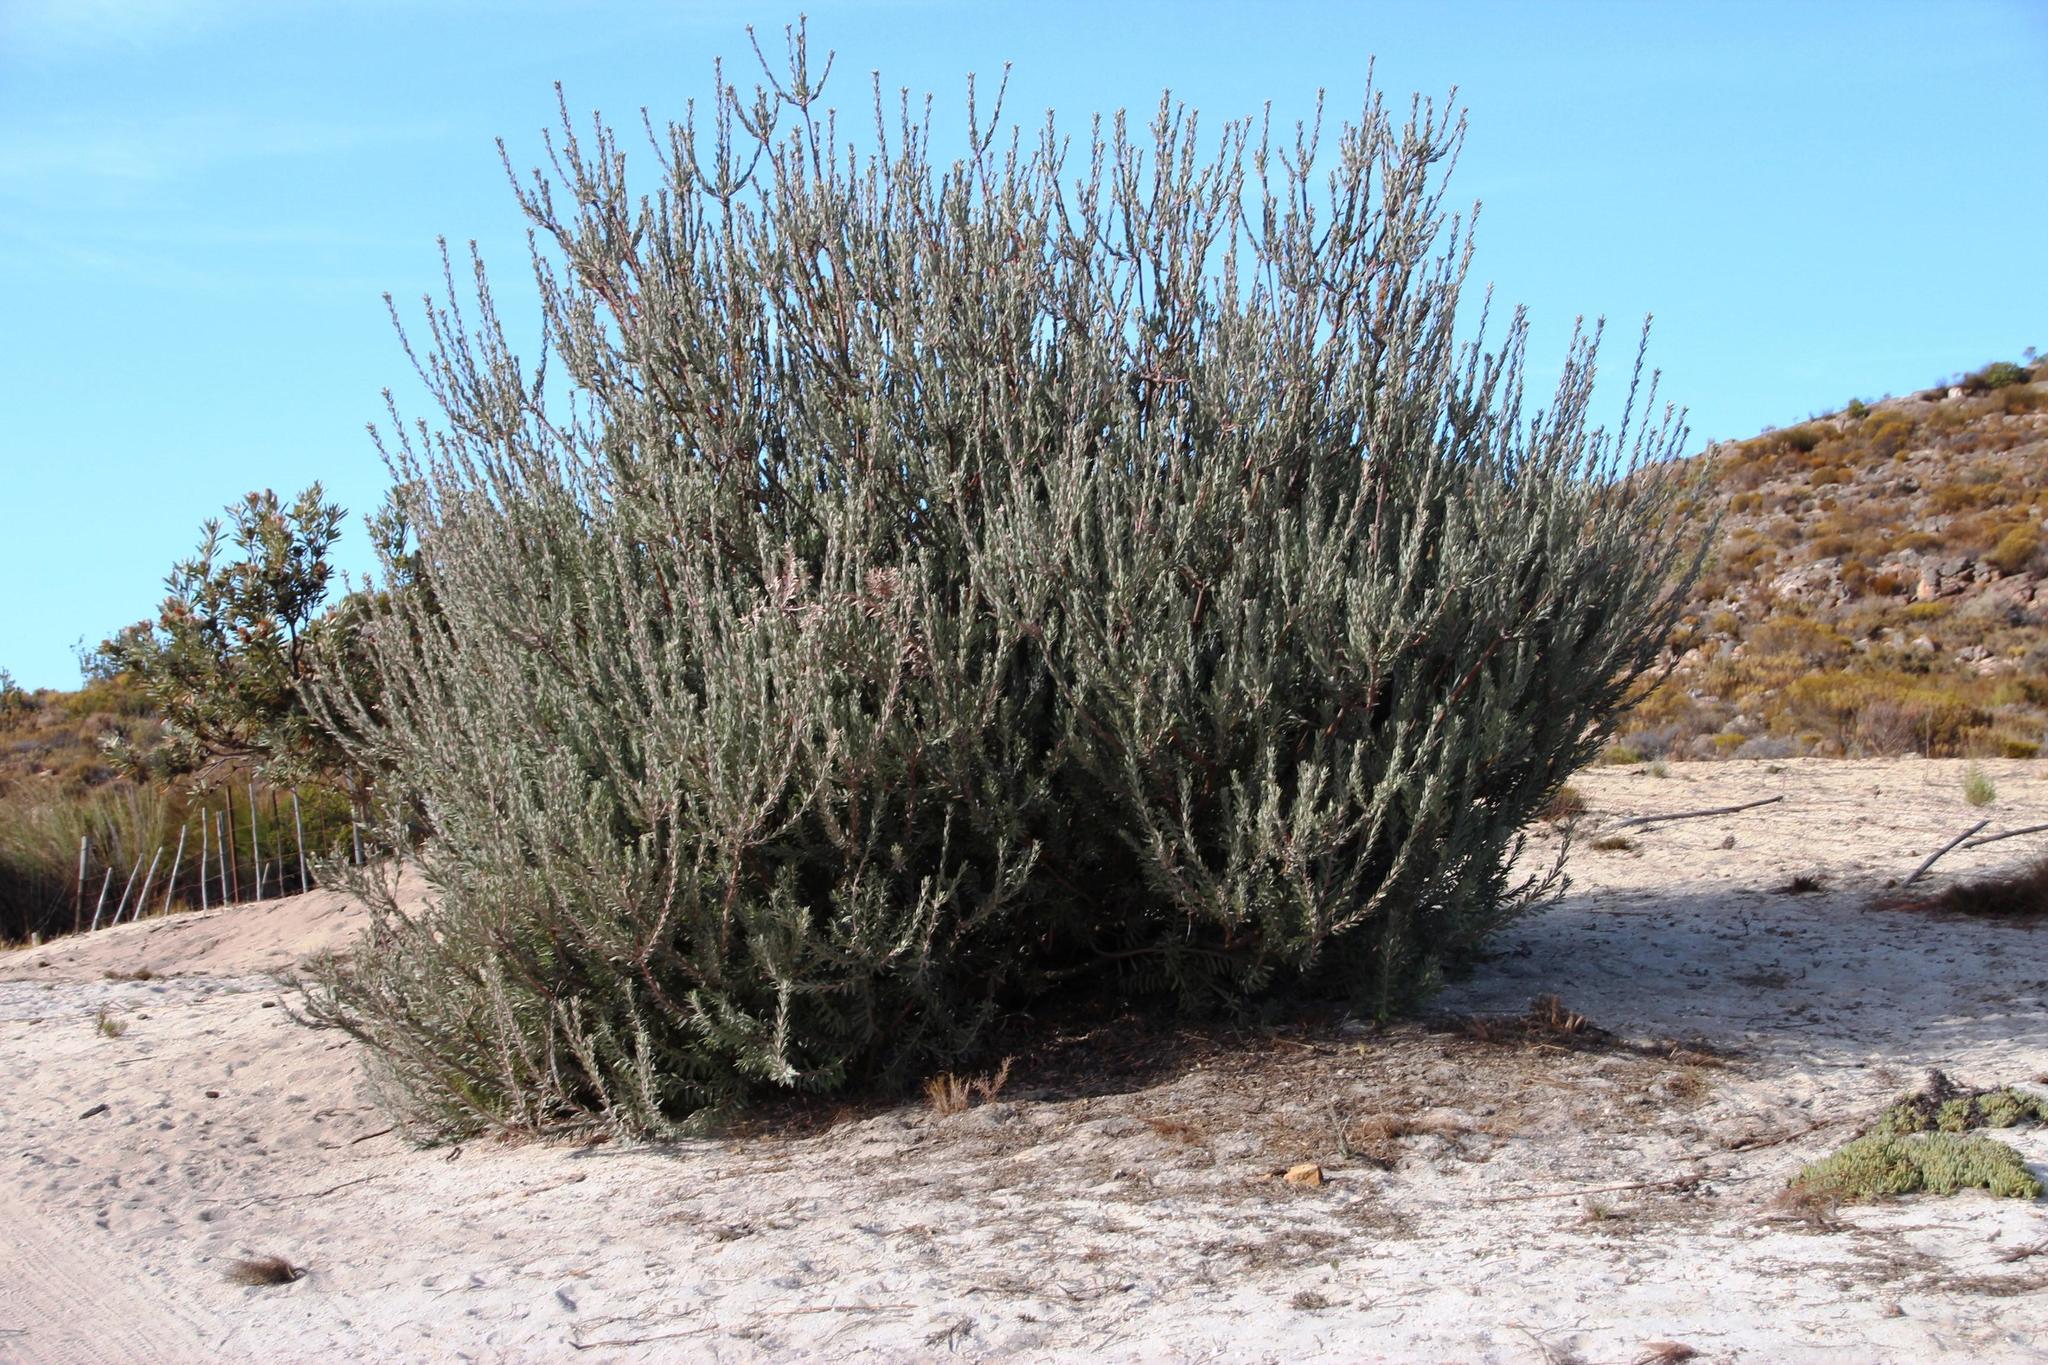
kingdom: Plantae
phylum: Tracheophyta
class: Magnoliopsida
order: Proteales
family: Proteaceae
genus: Leucospermum
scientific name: Leucospermum reflexum
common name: Rocket pincushion
